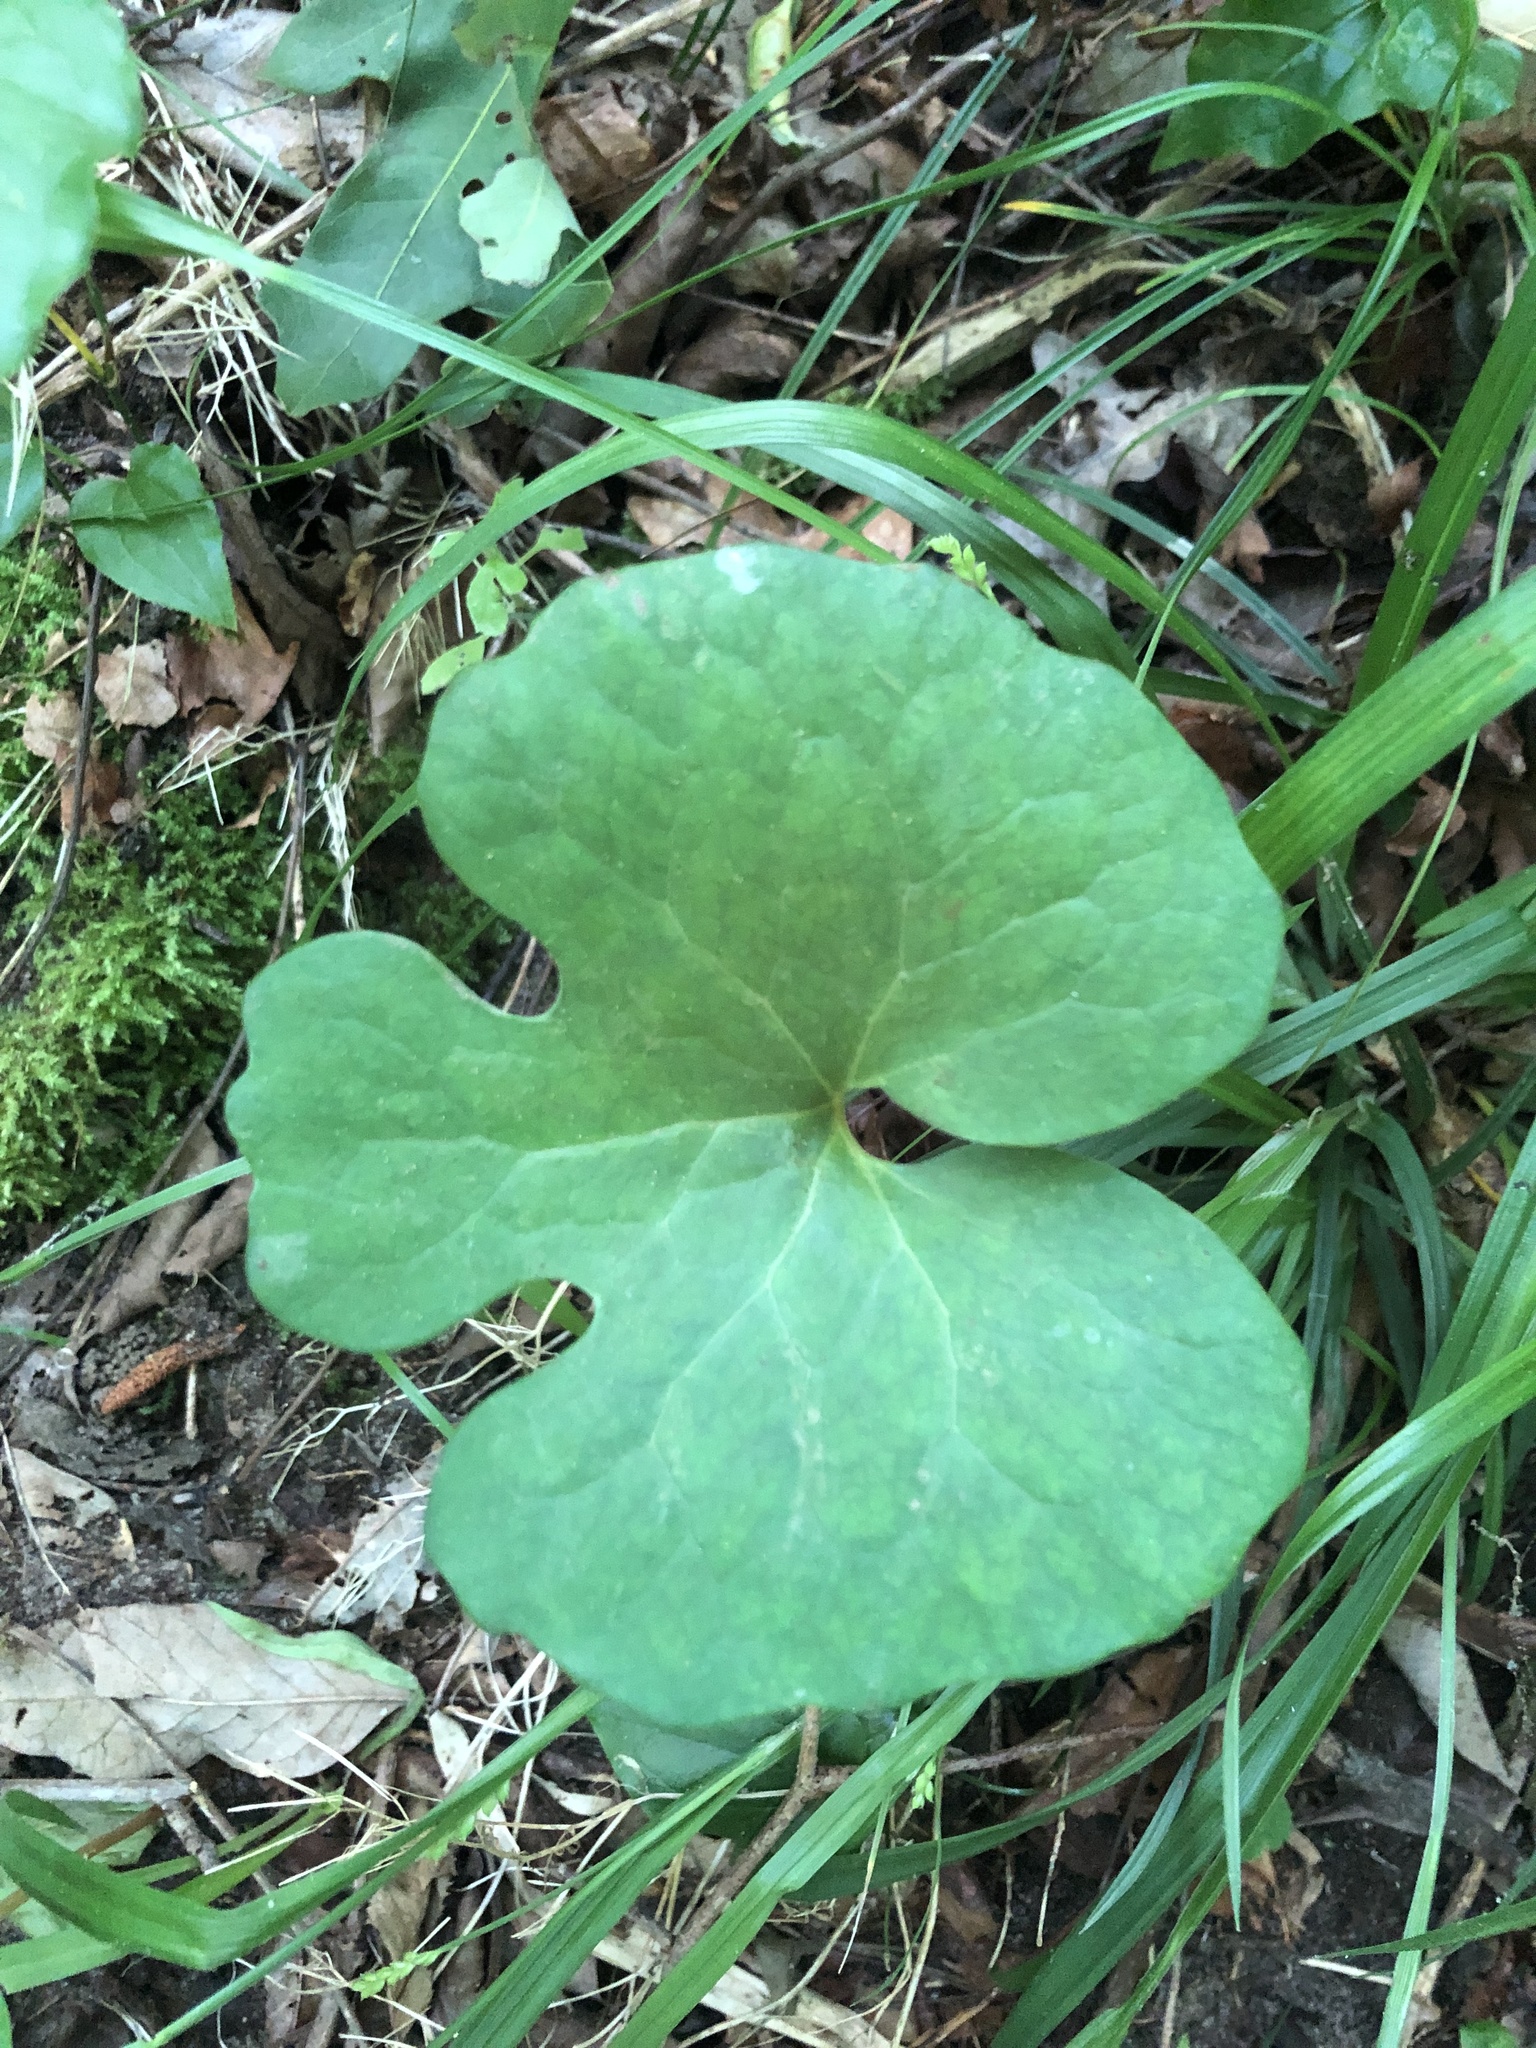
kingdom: Plantae
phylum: Tracheophyta
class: Magnoliopsida
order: Ranunculales
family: Papaveraceae
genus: Sanguinaria
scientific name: Sanguinaria canadensis
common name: Bloodroot
